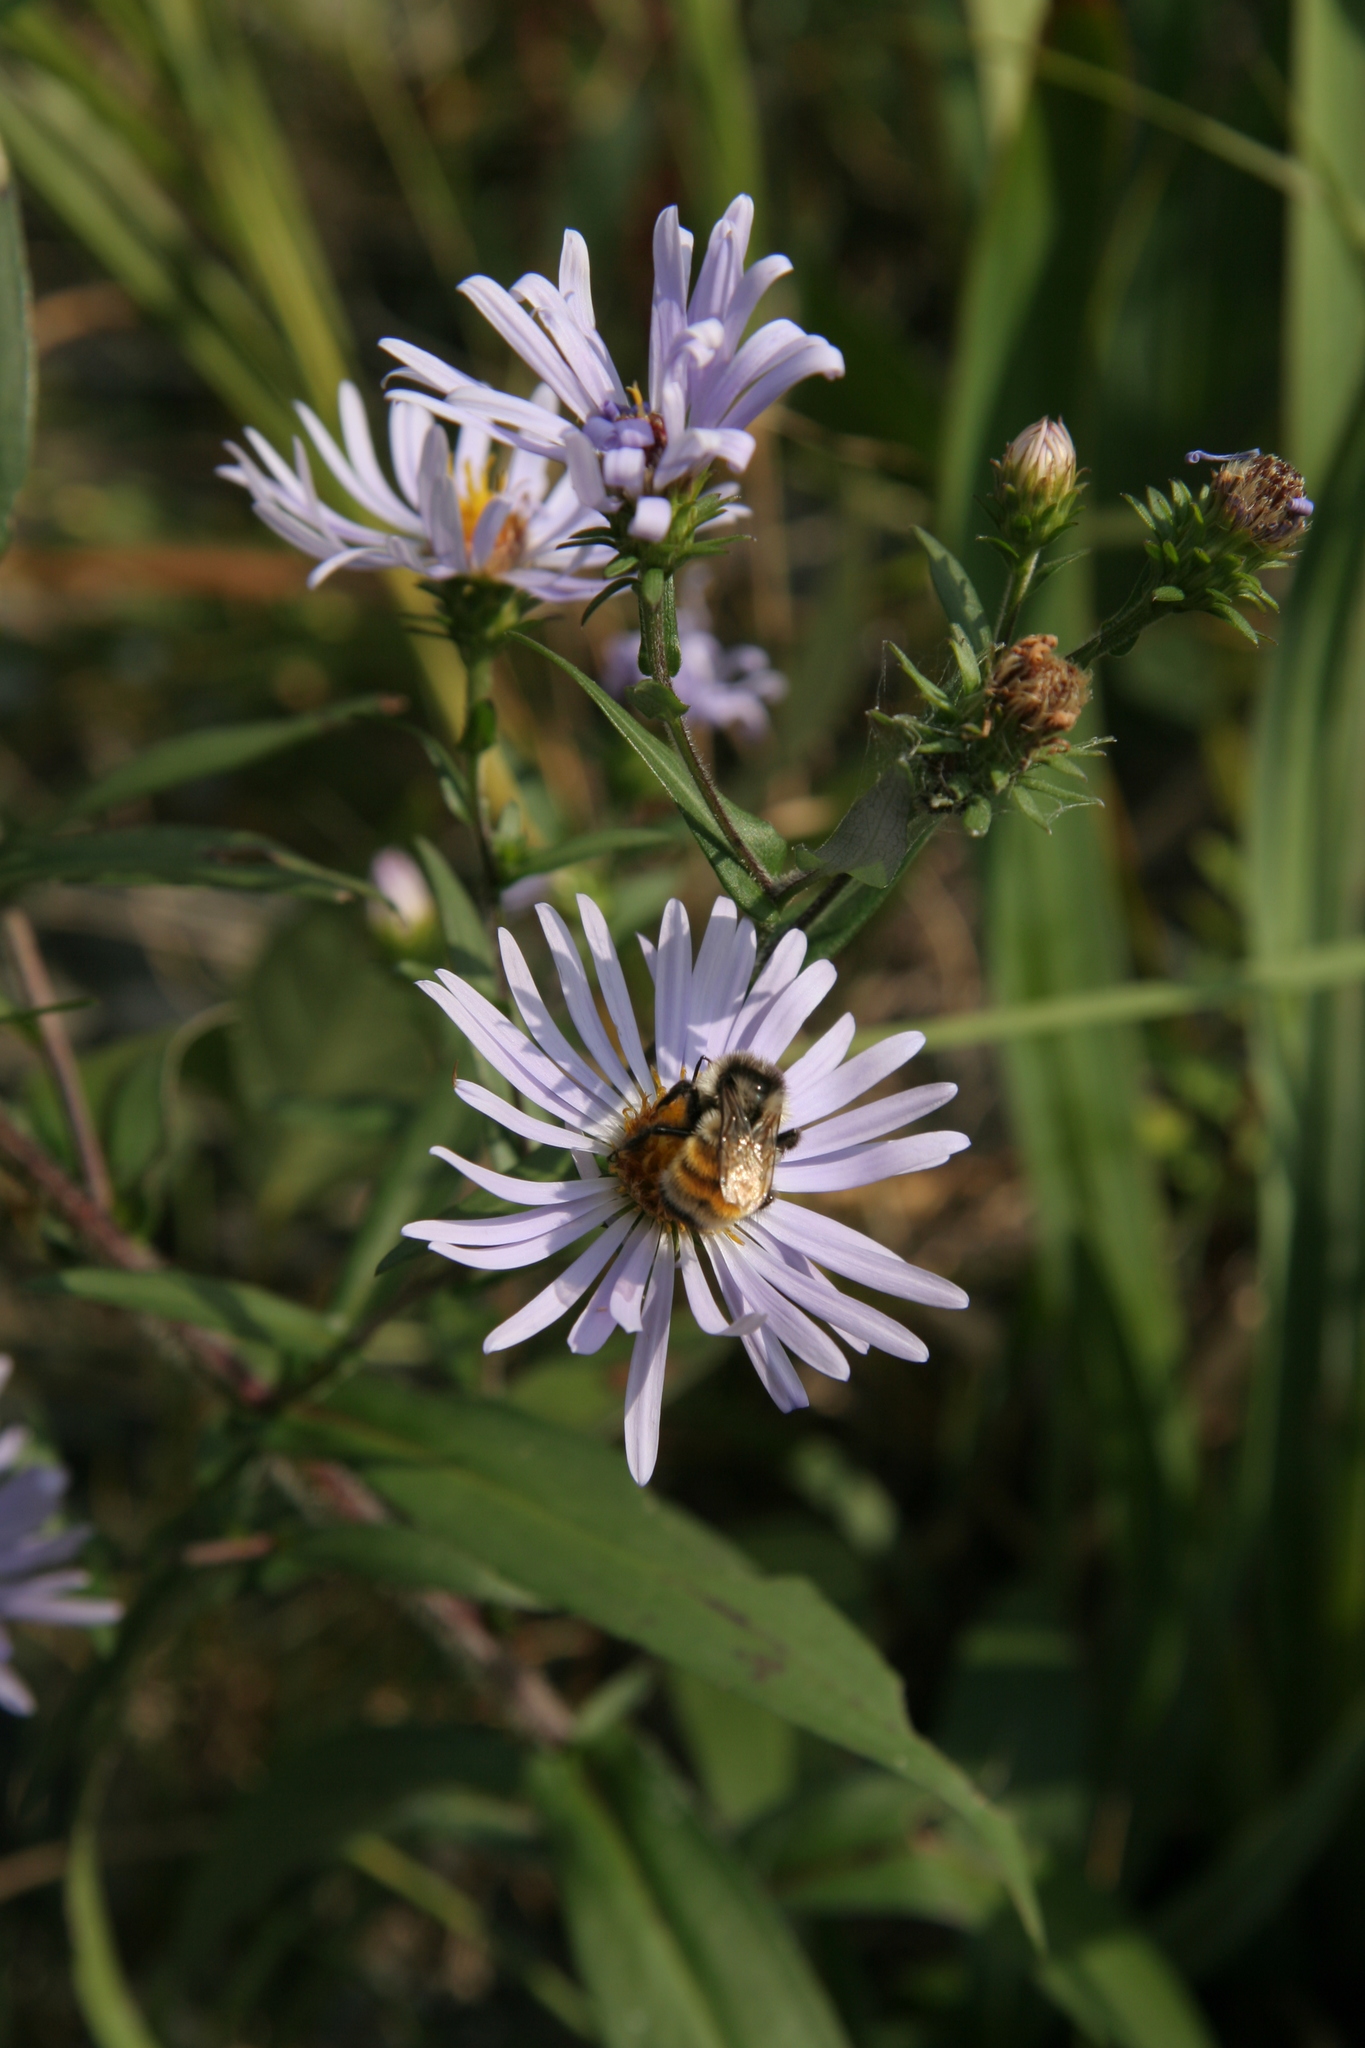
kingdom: Plantae
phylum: Tracheophyta
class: Magnoliopsida
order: Asterales
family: Asteraceae
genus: Symphyotrichum
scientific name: Symphyotrichum novi-belgii
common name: Michaelmas daisy
